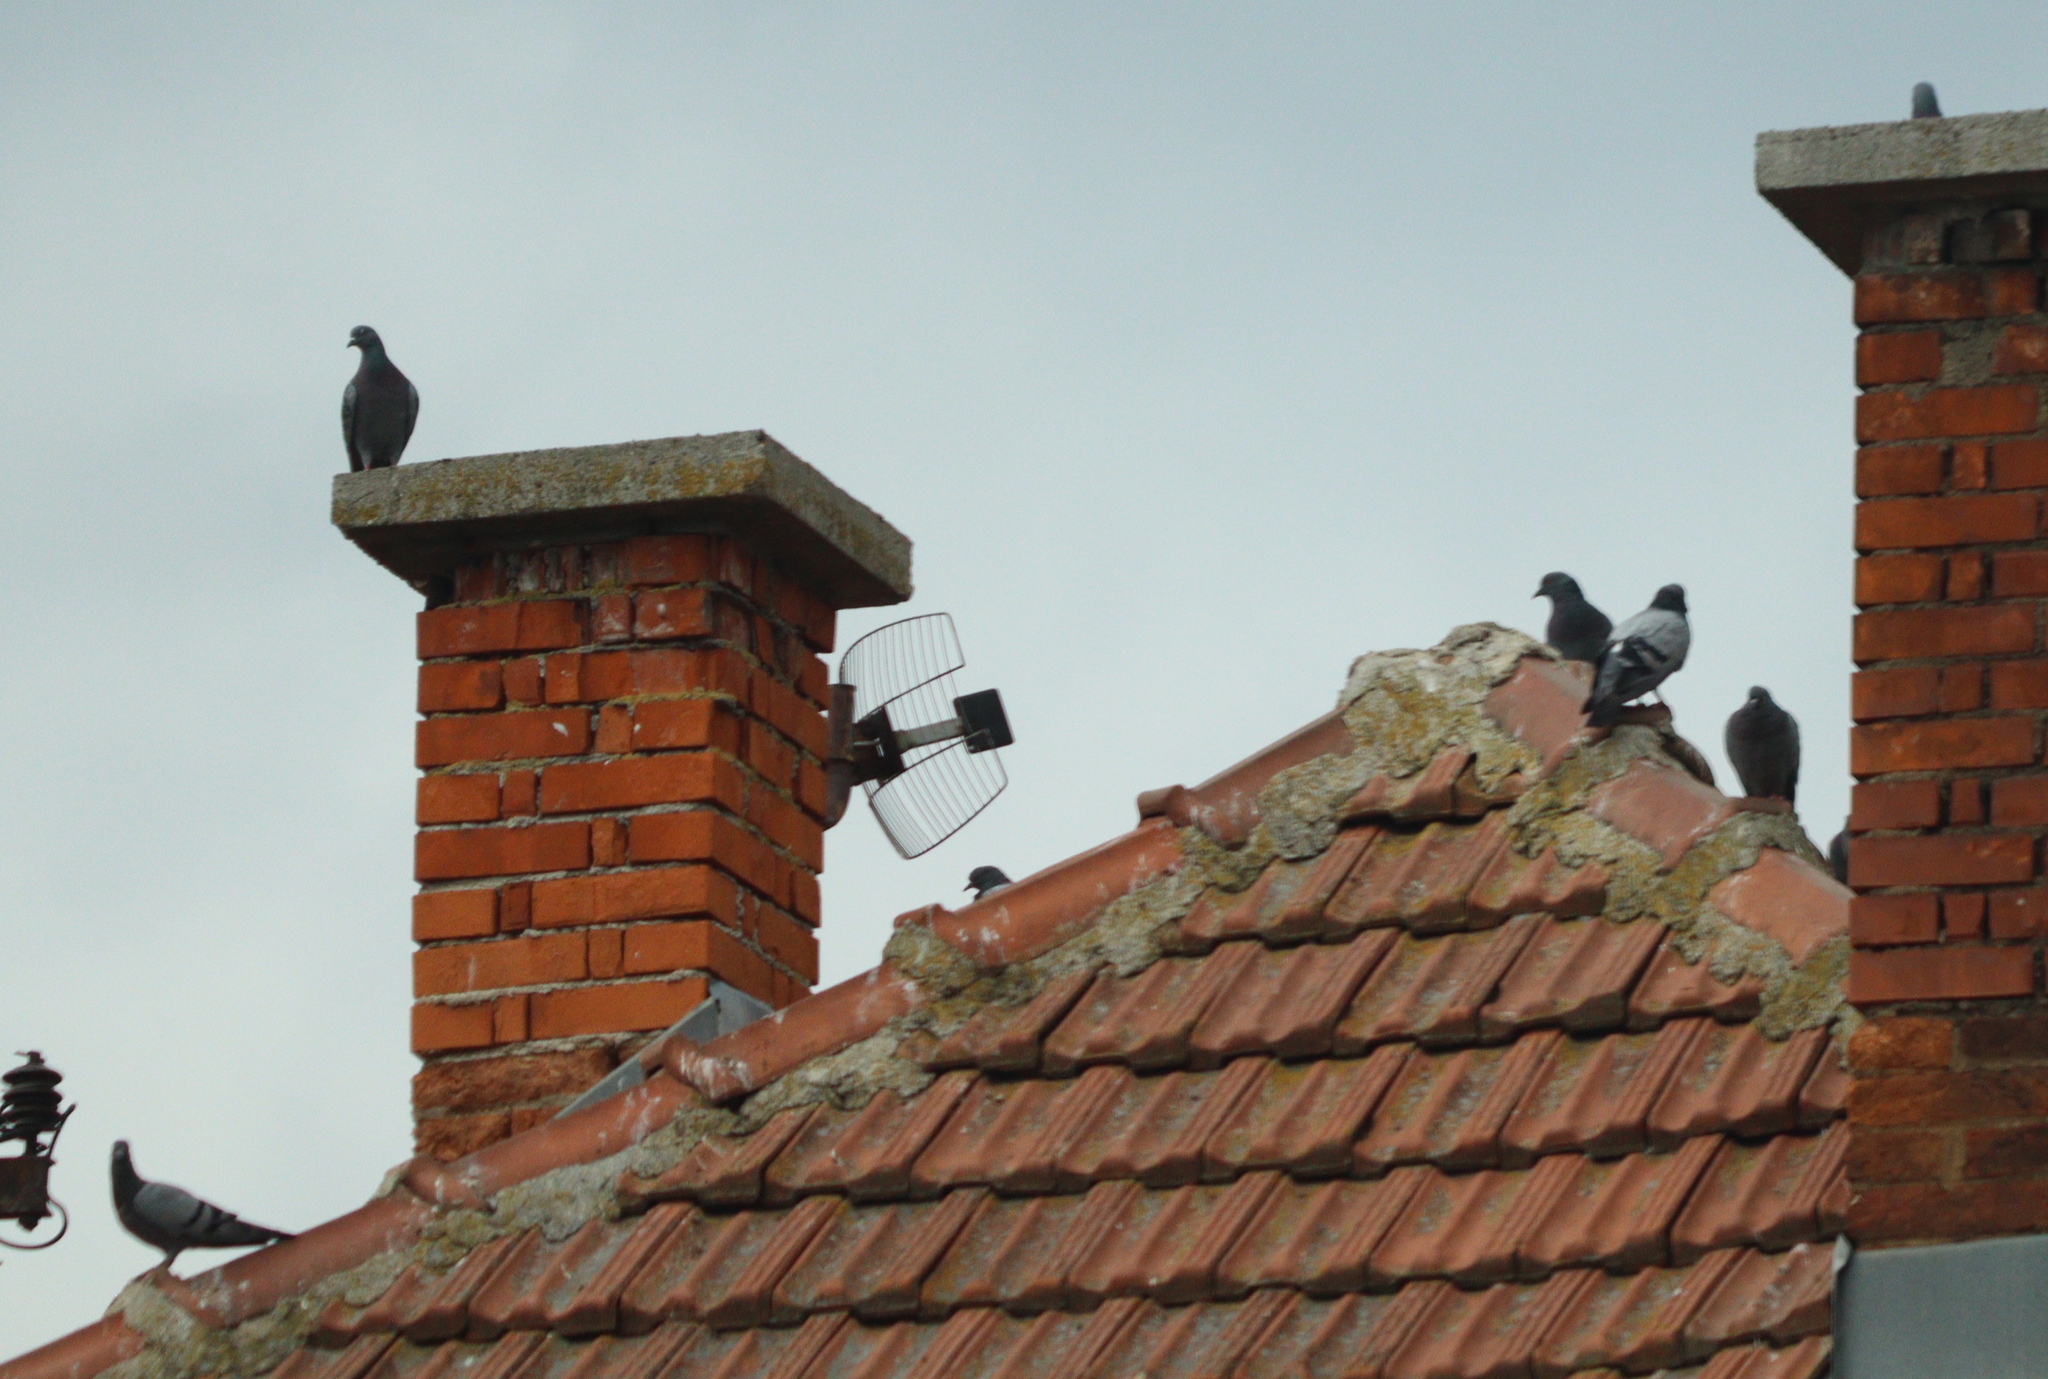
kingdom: Animalia
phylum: Chordata
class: Aves
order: Columbiformes
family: Columbidae
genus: Columba
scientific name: Columba livia
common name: Rock pigeon
